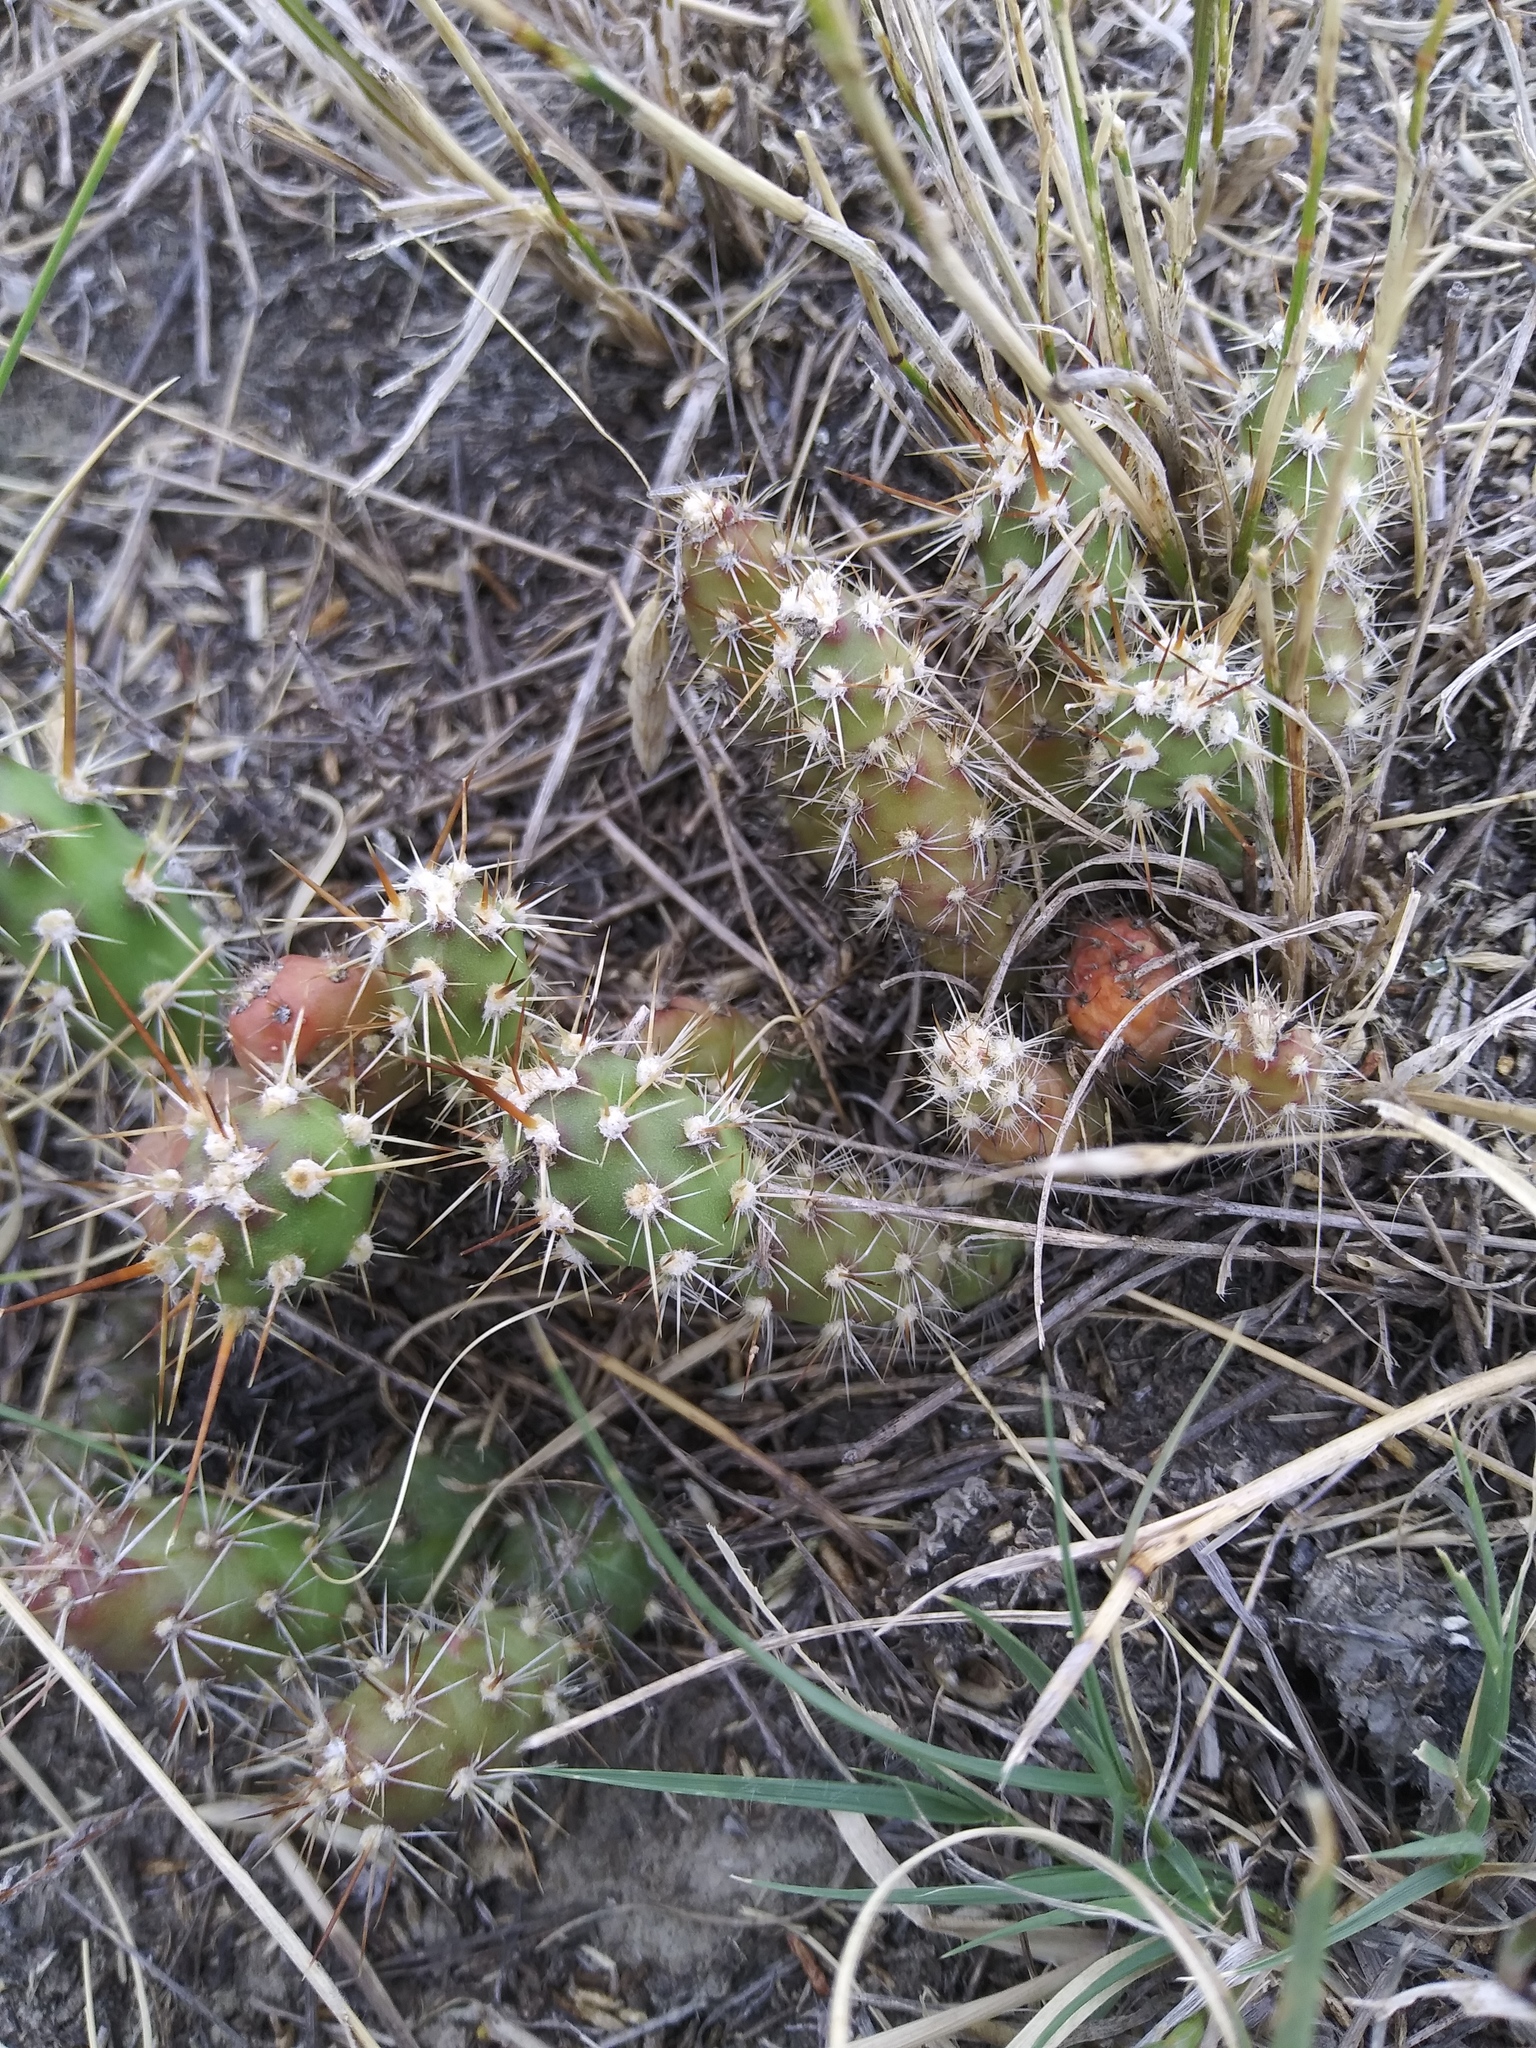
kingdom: Plantae
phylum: Tracheophyta
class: Magnoliopsida
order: Caryophyllales
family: Cactaceae
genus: Opuntia
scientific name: Opuntia fragilis
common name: Brittle cactus
